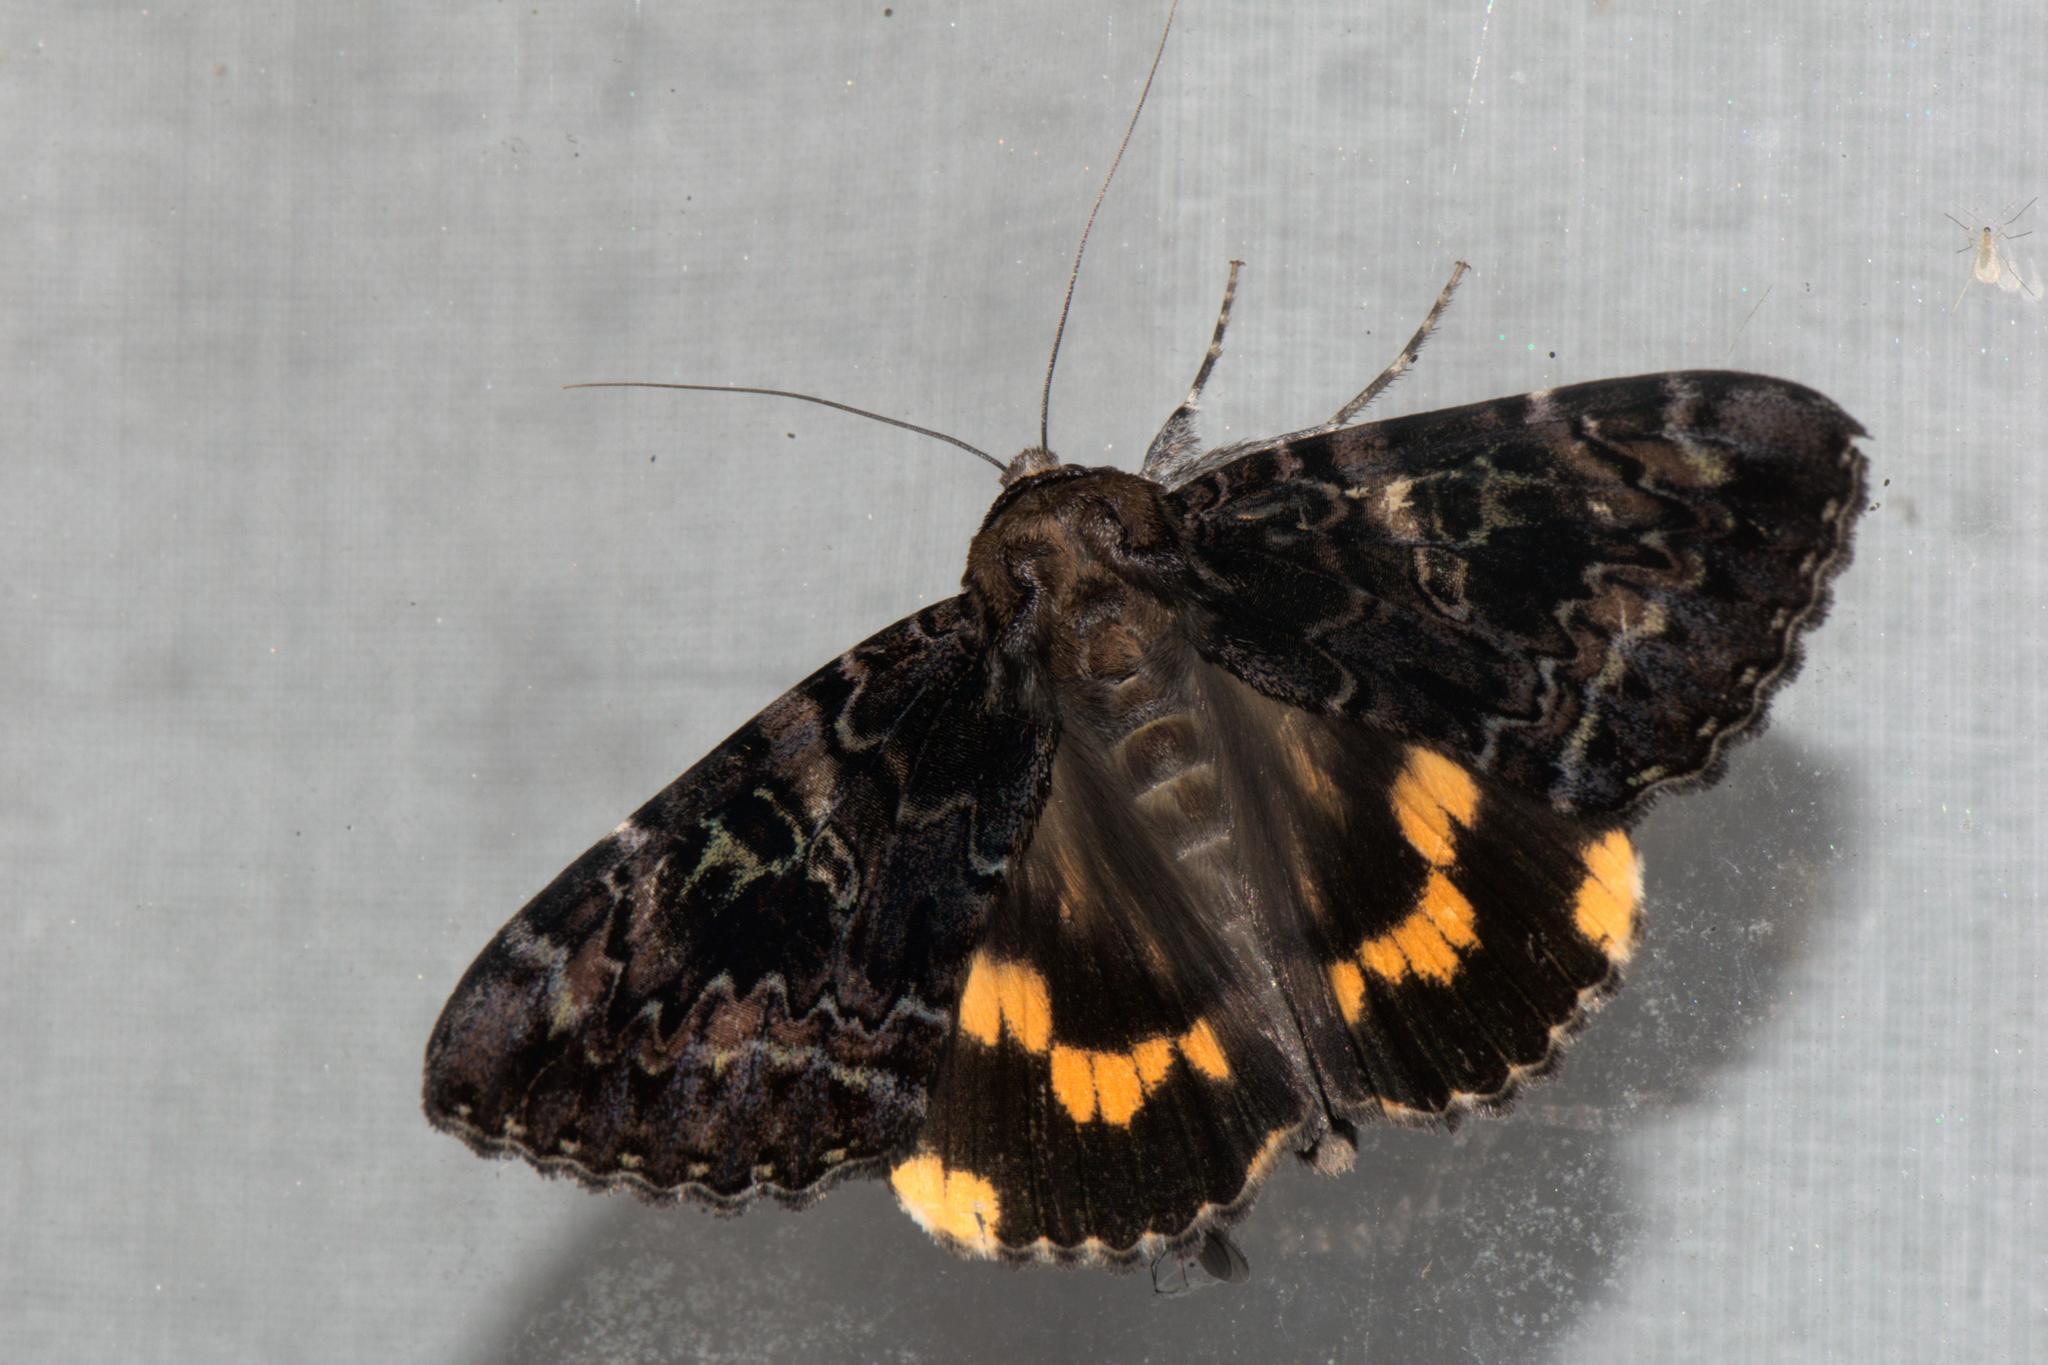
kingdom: Animalia
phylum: Arthropoda
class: Insecta
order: Lepidoptera
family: Erebidae
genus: Catocala
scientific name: Catocala tapestrina
